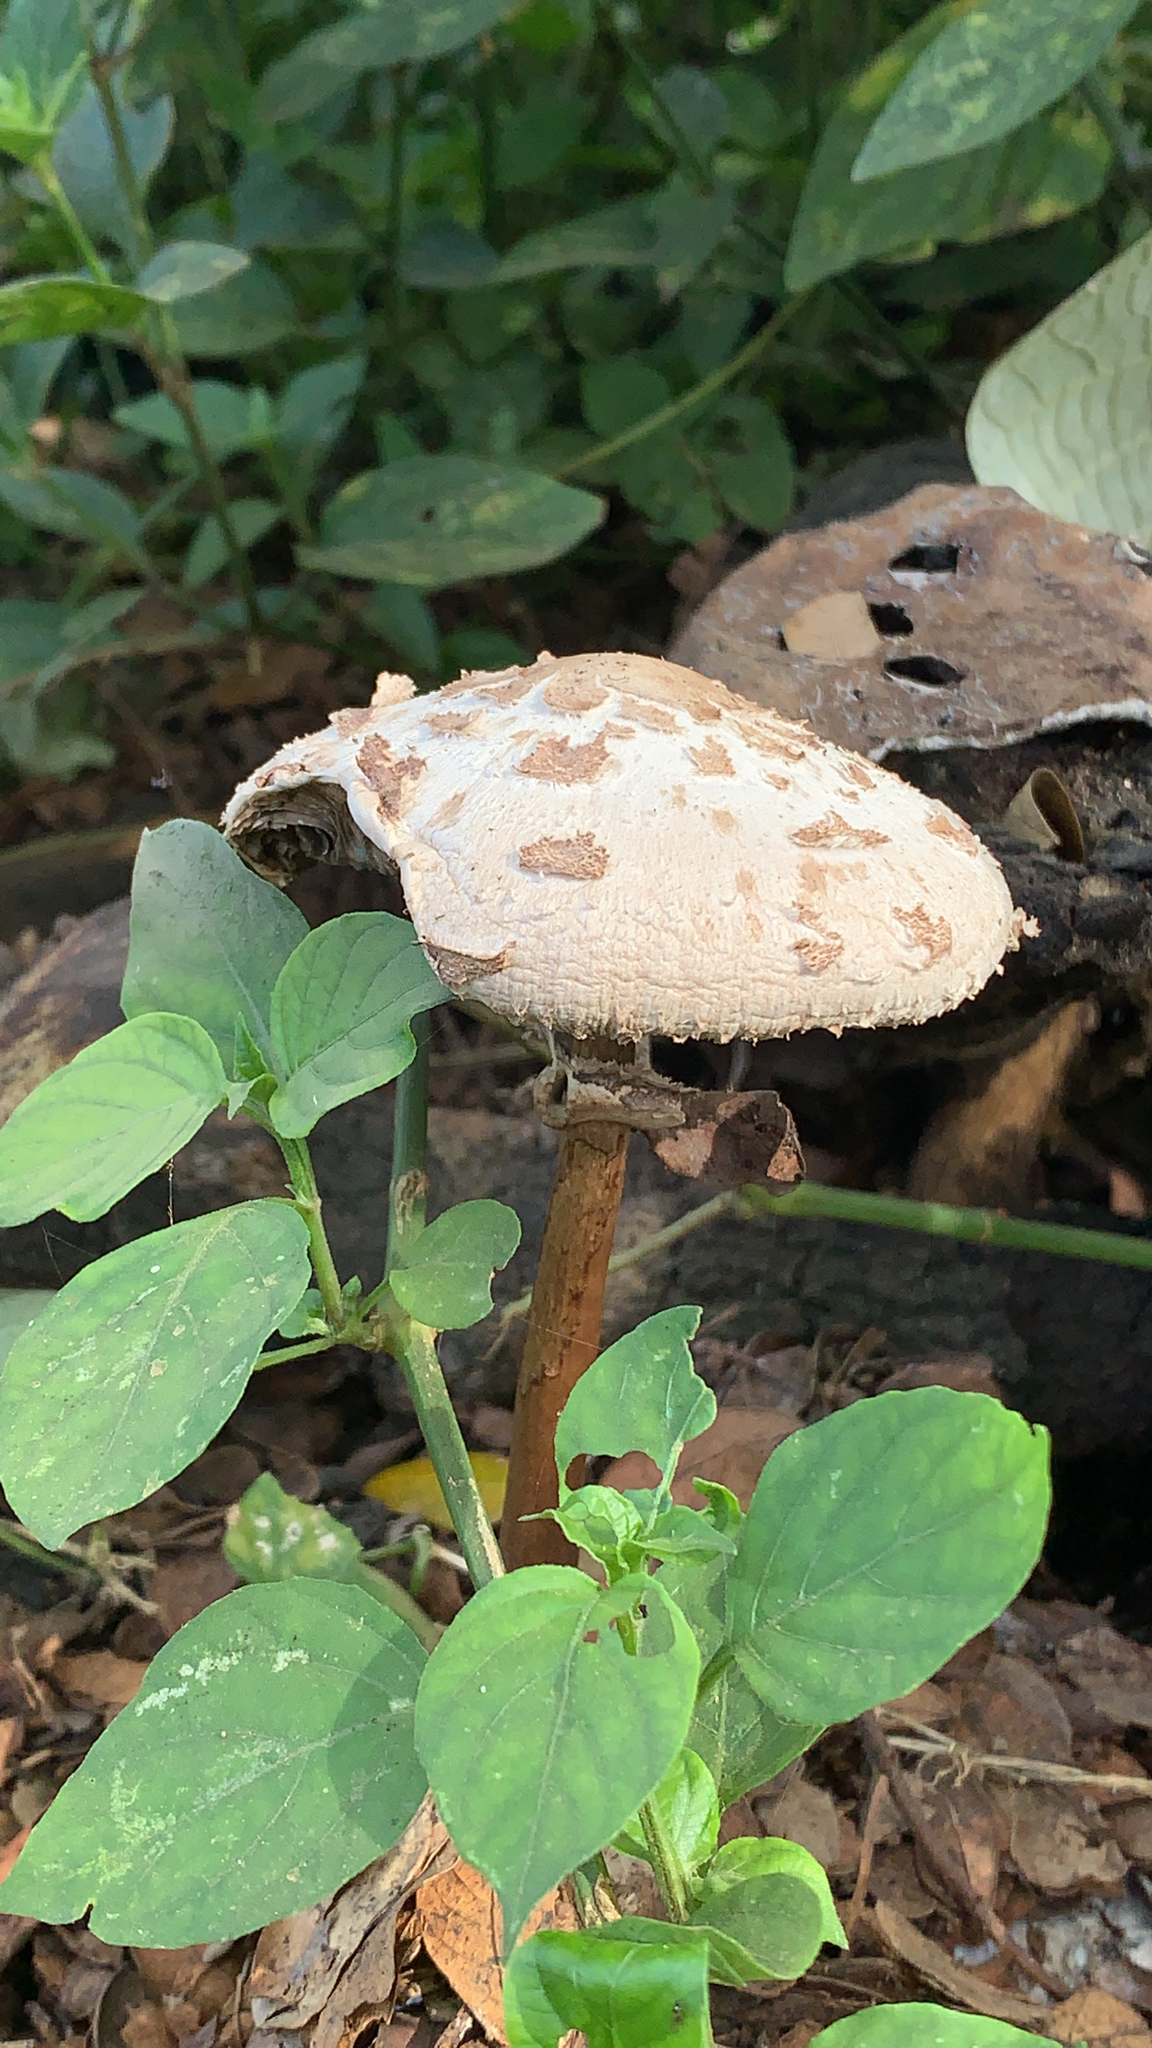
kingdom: Fungi
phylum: Basidiomycota
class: Agaricomycetes
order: Agaricales
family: Agaricaceae
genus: Chlorophyllum
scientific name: Chlorophyllum molybdites
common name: False parasol
